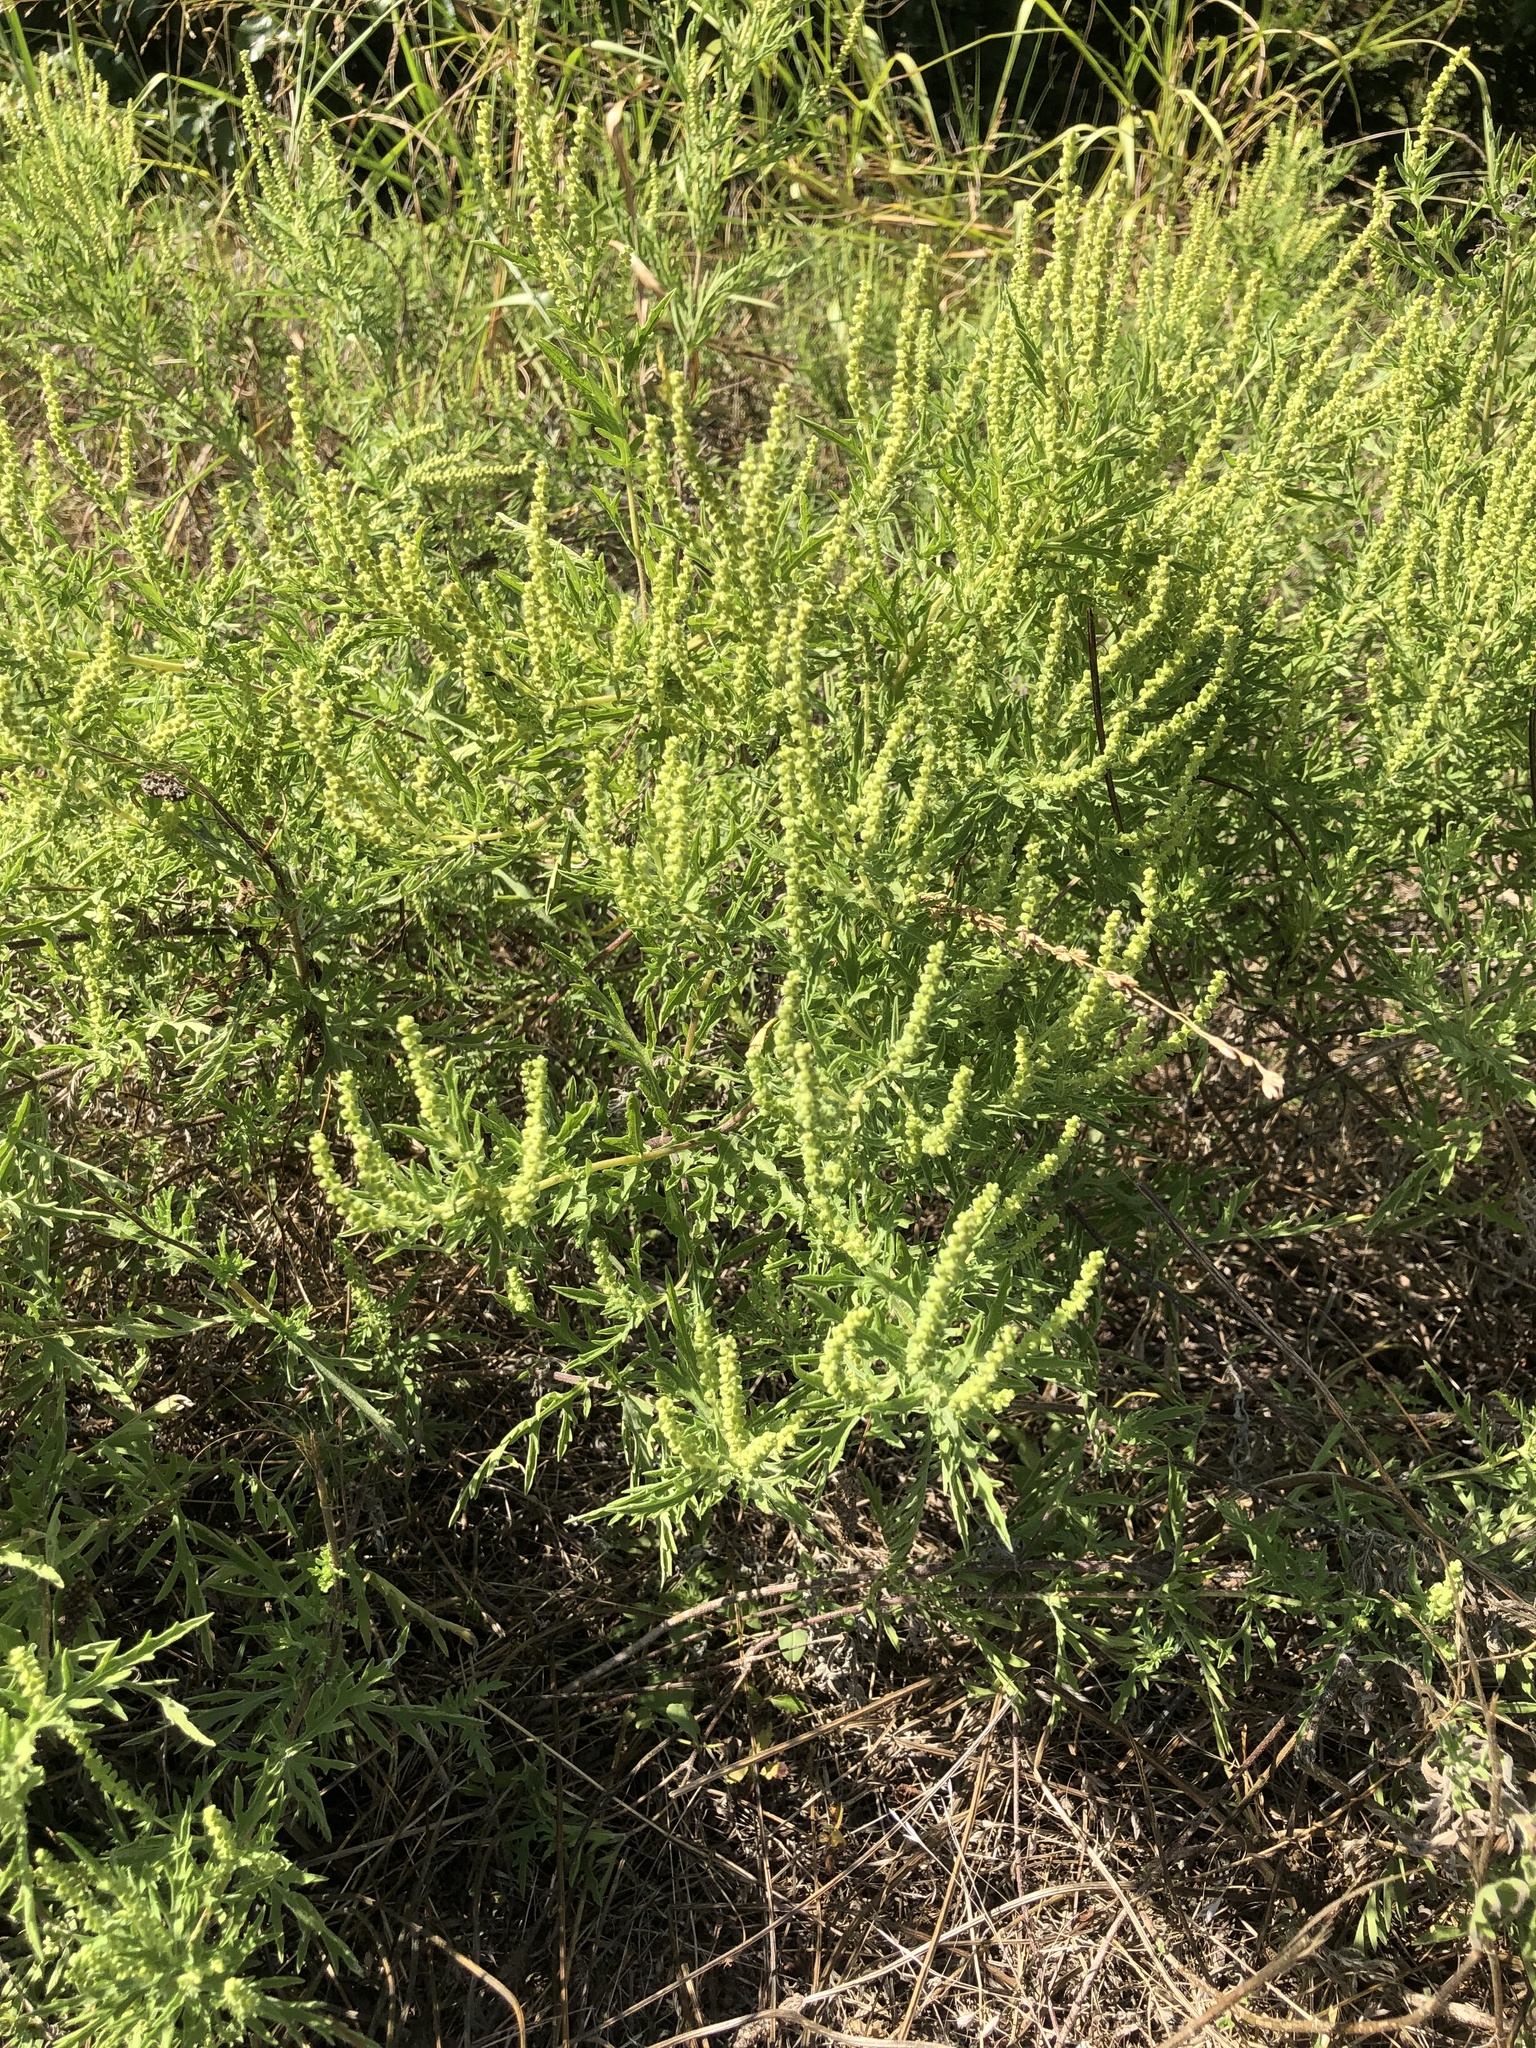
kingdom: Plantae
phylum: Tracheophyta
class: Magnoliopsida
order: Asterales
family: Asteraceae
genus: Ambrosia
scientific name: Ambrosia psilostachya
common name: Perennial ragweed
